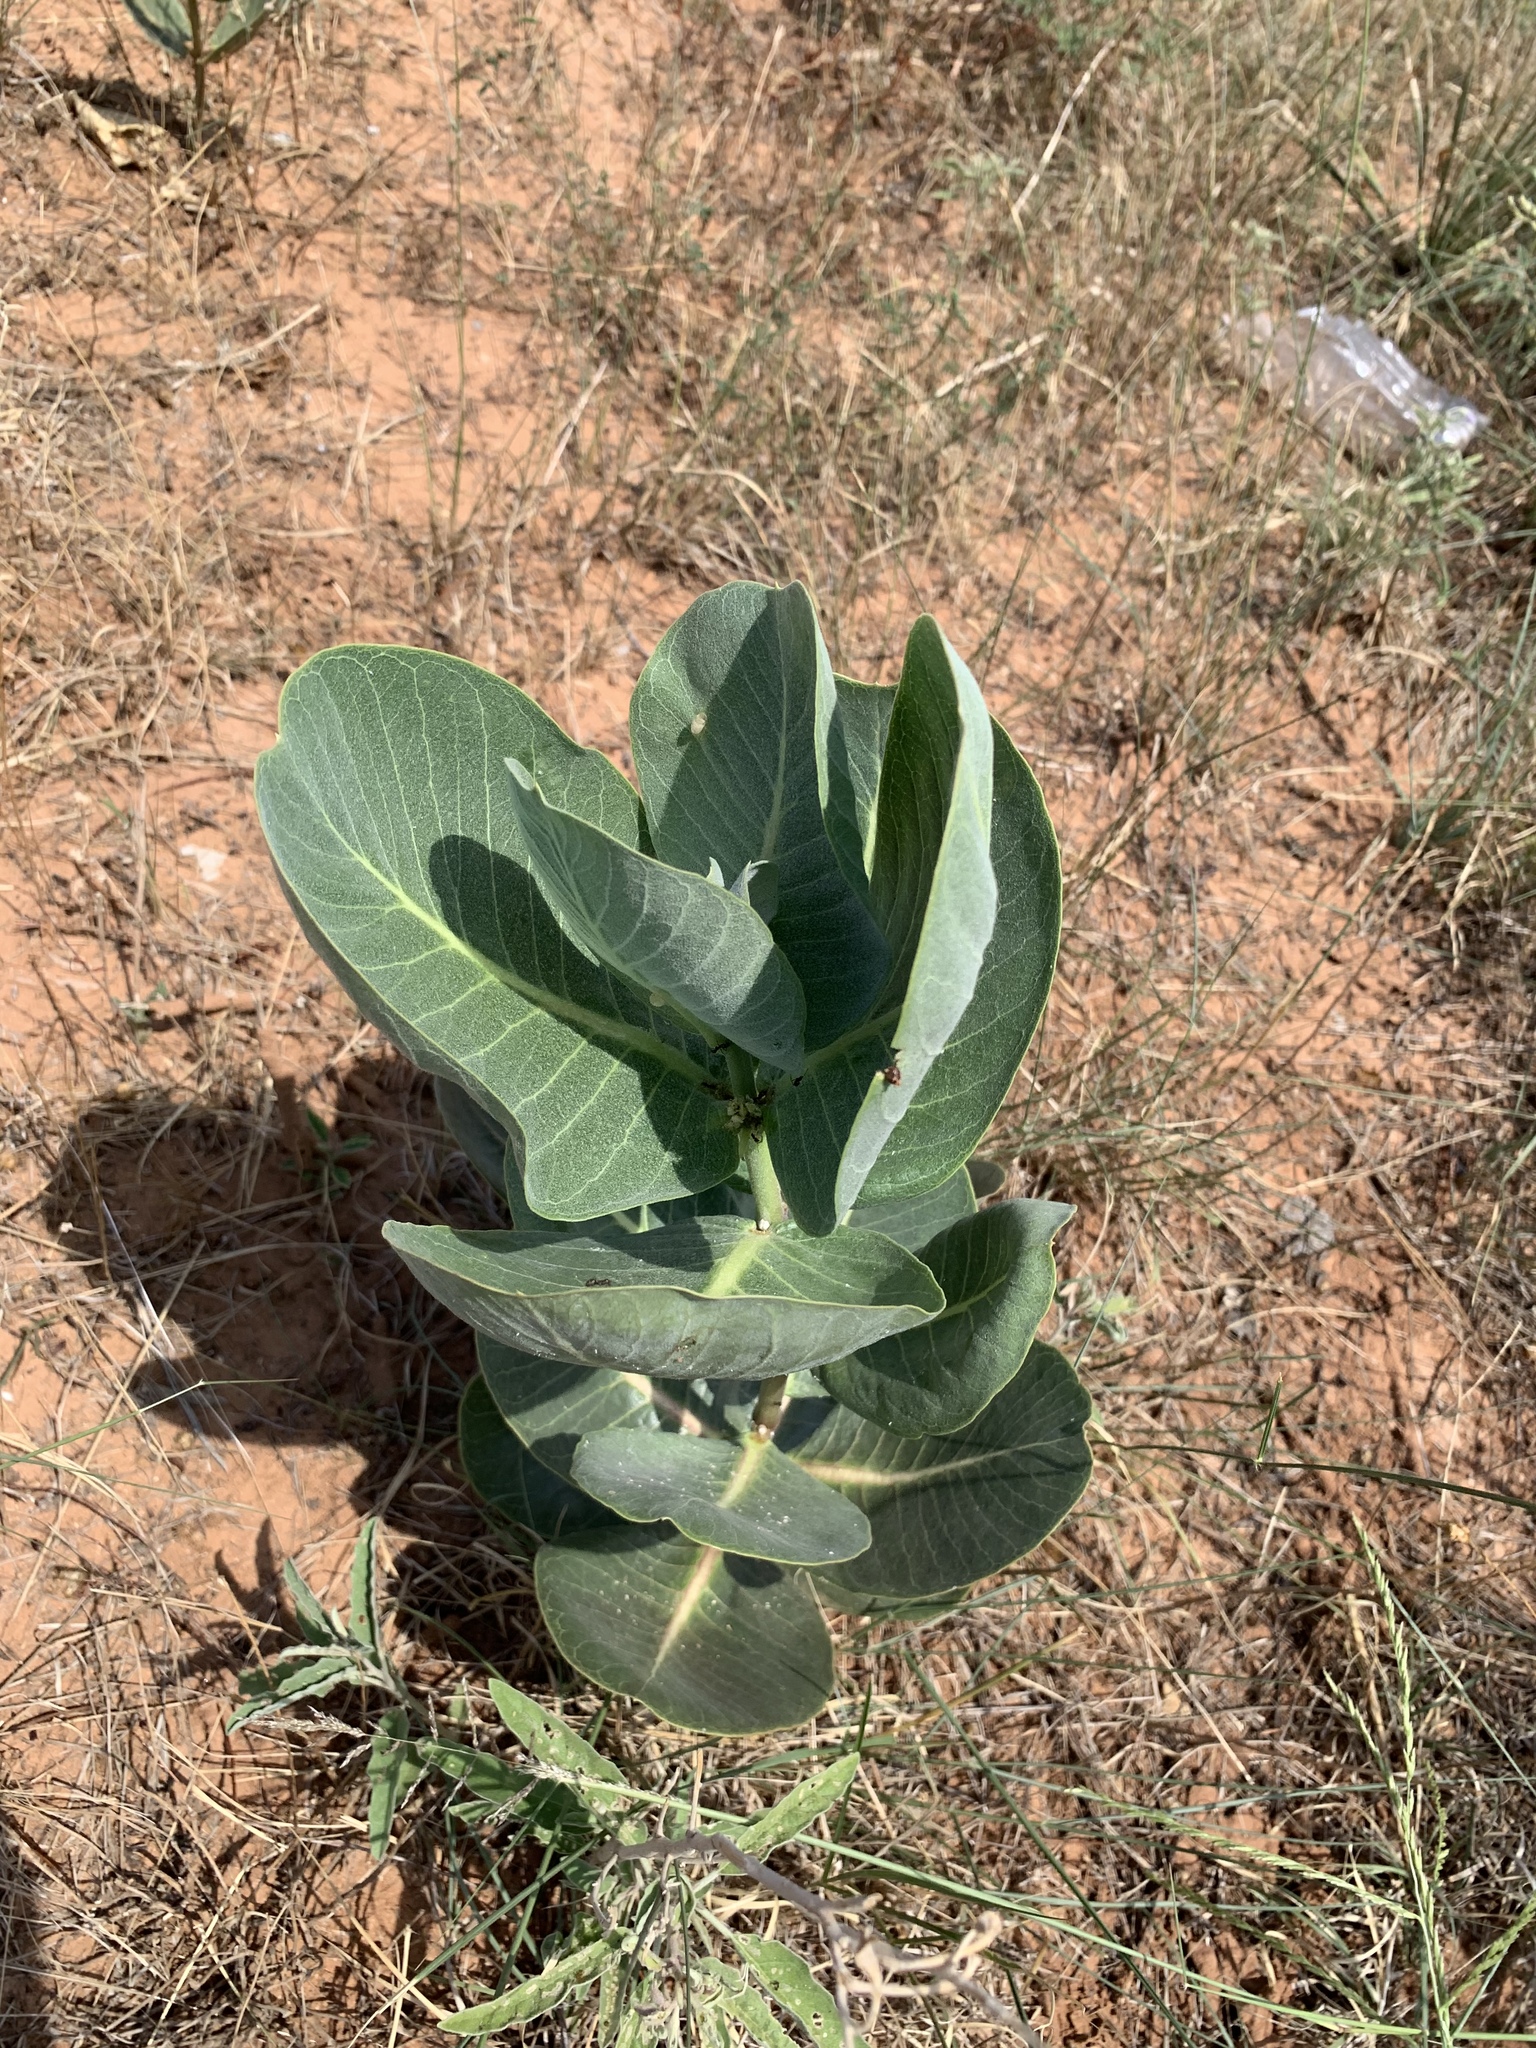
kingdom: Plantae
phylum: Tracheophyta
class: Magnoliopsida
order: Gentianales
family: Apocynaceae
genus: Asclepias
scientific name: Asclepias latifolia
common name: Broadleaf milkweed
